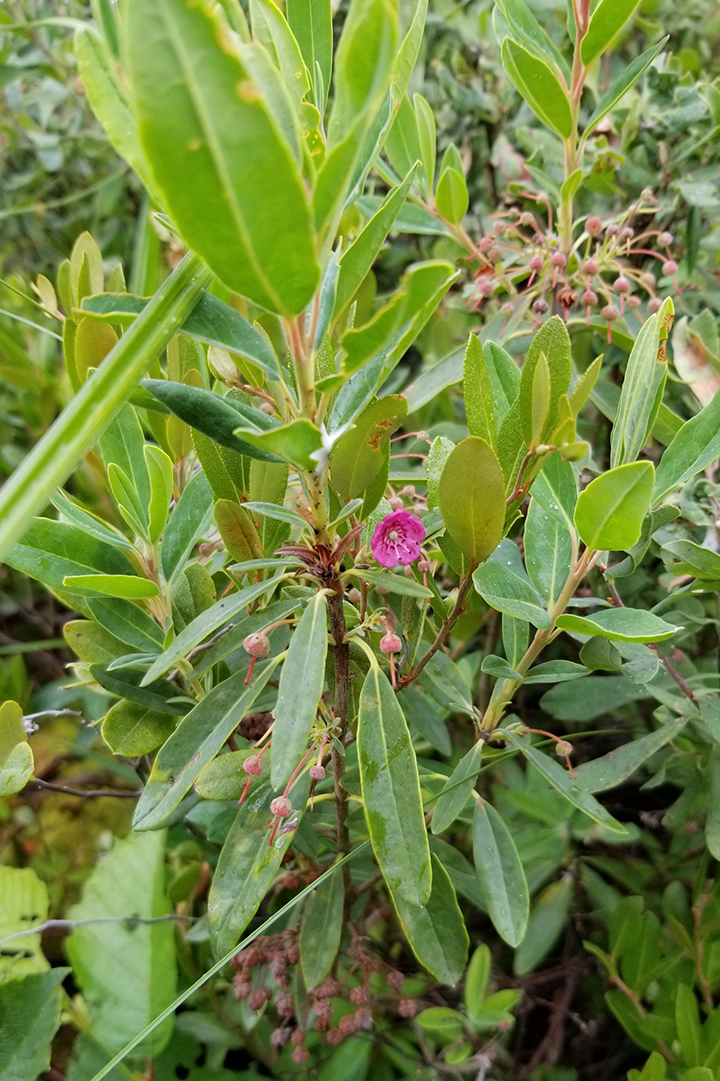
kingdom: Plantae
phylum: Tracheophyta
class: Magnoliopsida
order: Ericales
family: Ericaceae
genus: Kalmia
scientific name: Kalmia angustifolia
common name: Sheep-laurel
